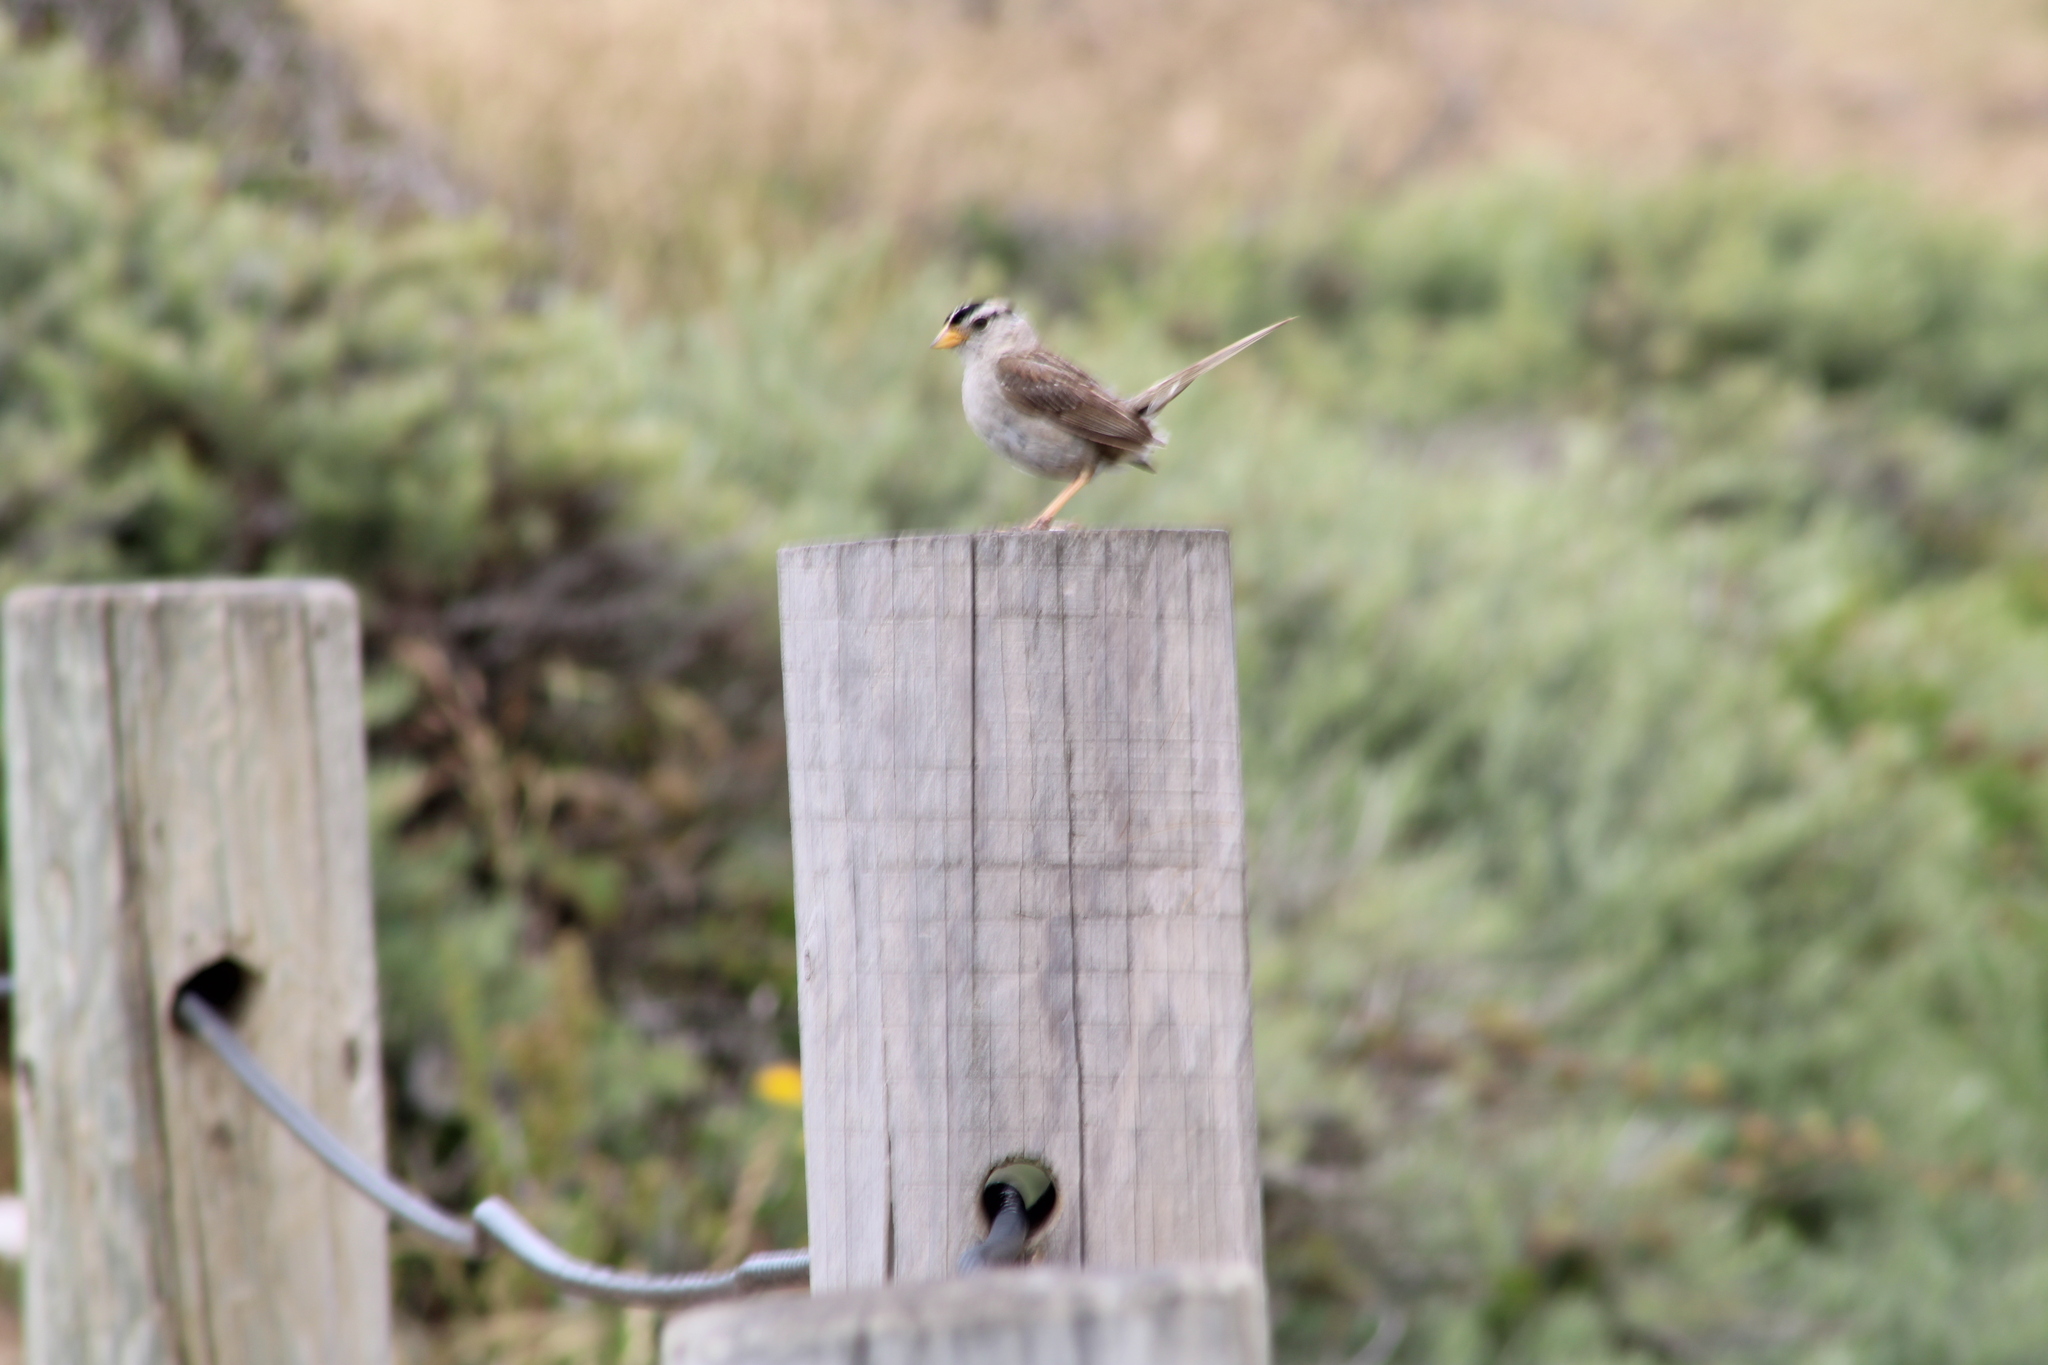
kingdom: Animalia
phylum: Chordata
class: Aves
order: Passeriformes
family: Passerellidae
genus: Zonotrichia
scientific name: Zonotrichia leucophrys
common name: White-crowned sparrow
